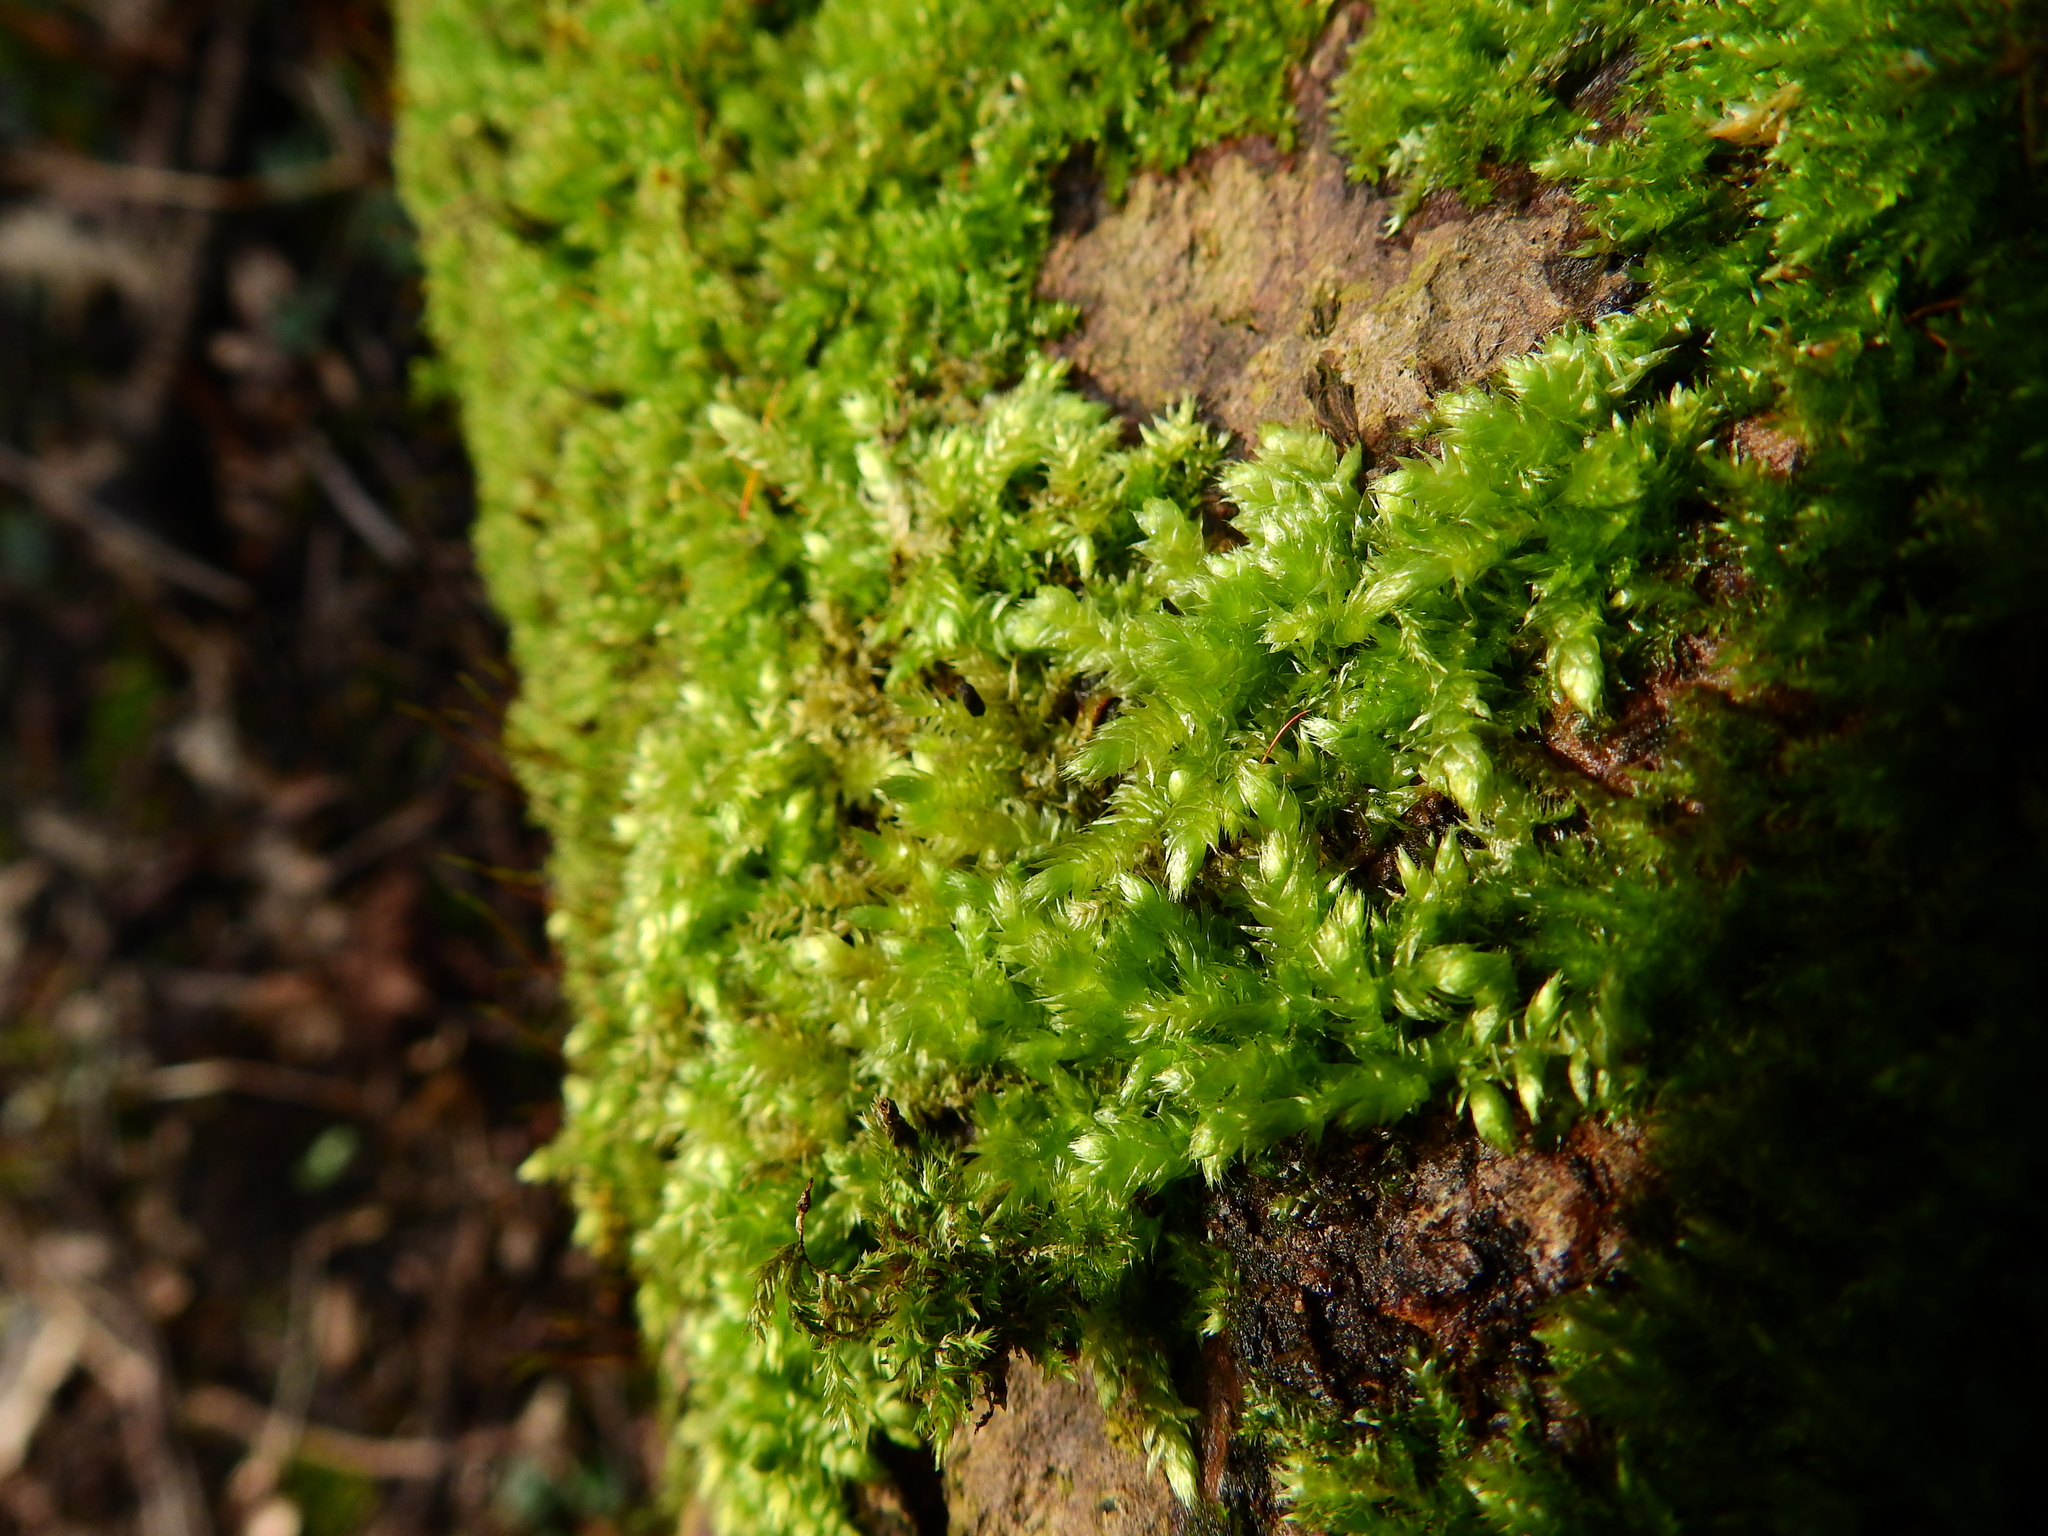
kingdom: Plantae
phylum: Bryophyta
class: Bryopsida
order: Hypnales
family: Brachytheciaceae
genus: Brachythecium
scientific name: Brachythecium rutabulum
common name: Rough-stalked feather-moss
